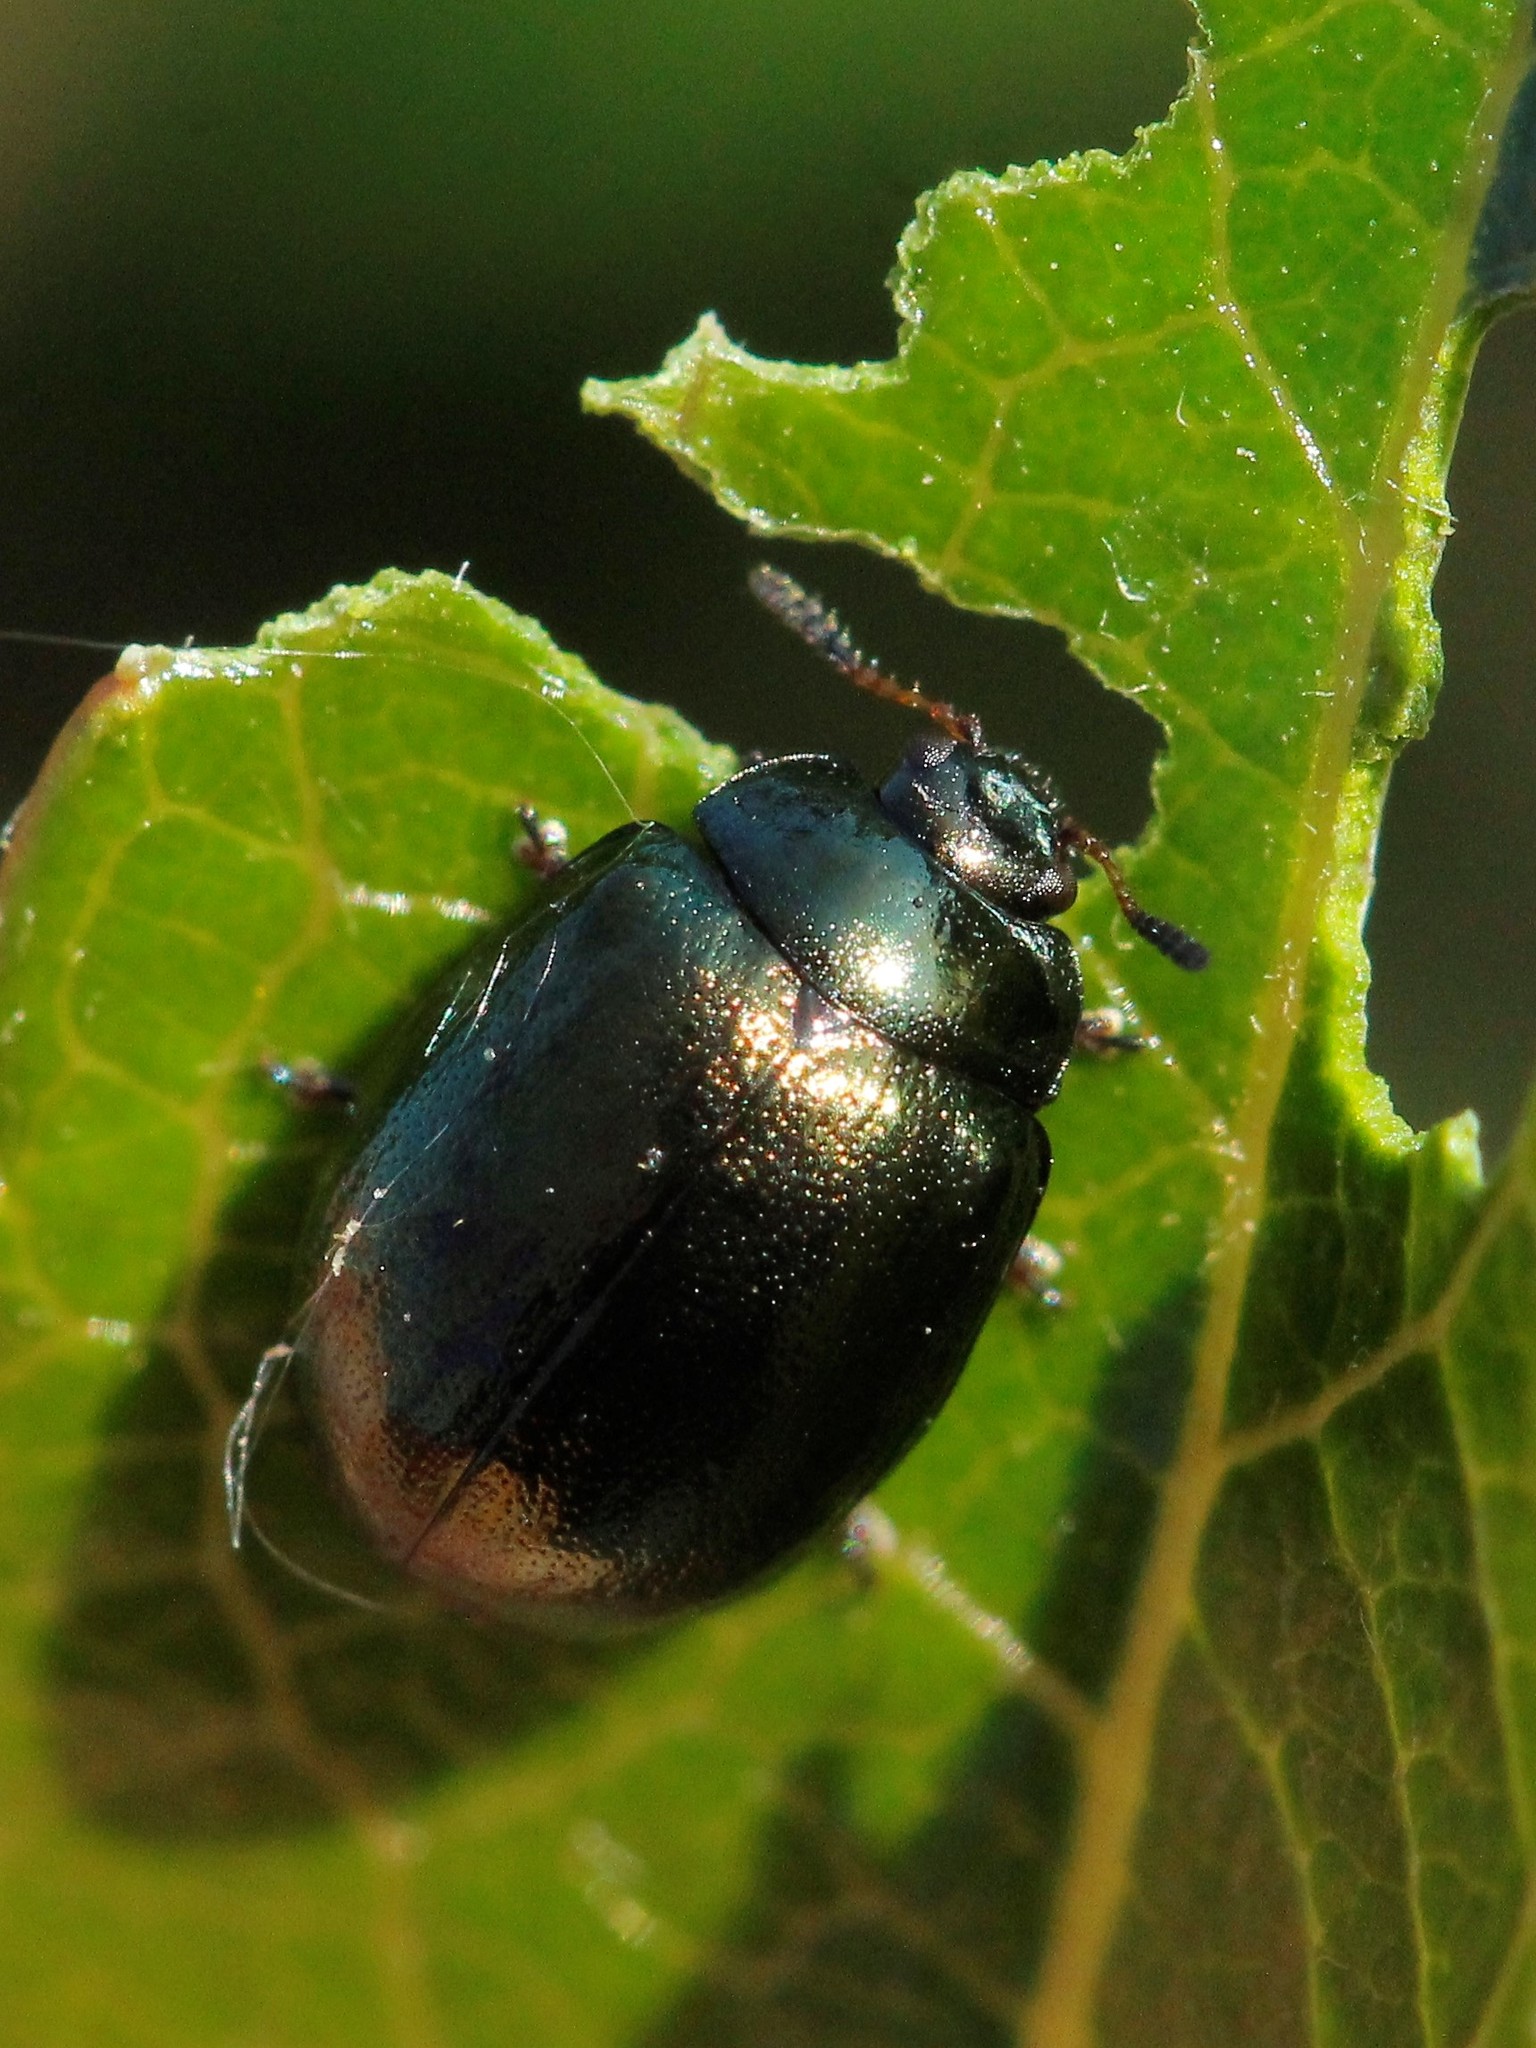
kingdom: Animalia
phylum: Arthropoda
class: Insecta
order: Coleoptera
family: Chrysomelidae
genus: Plagiodera
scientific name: Plagiodera versicolora
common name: Imported willow leaf beetle
